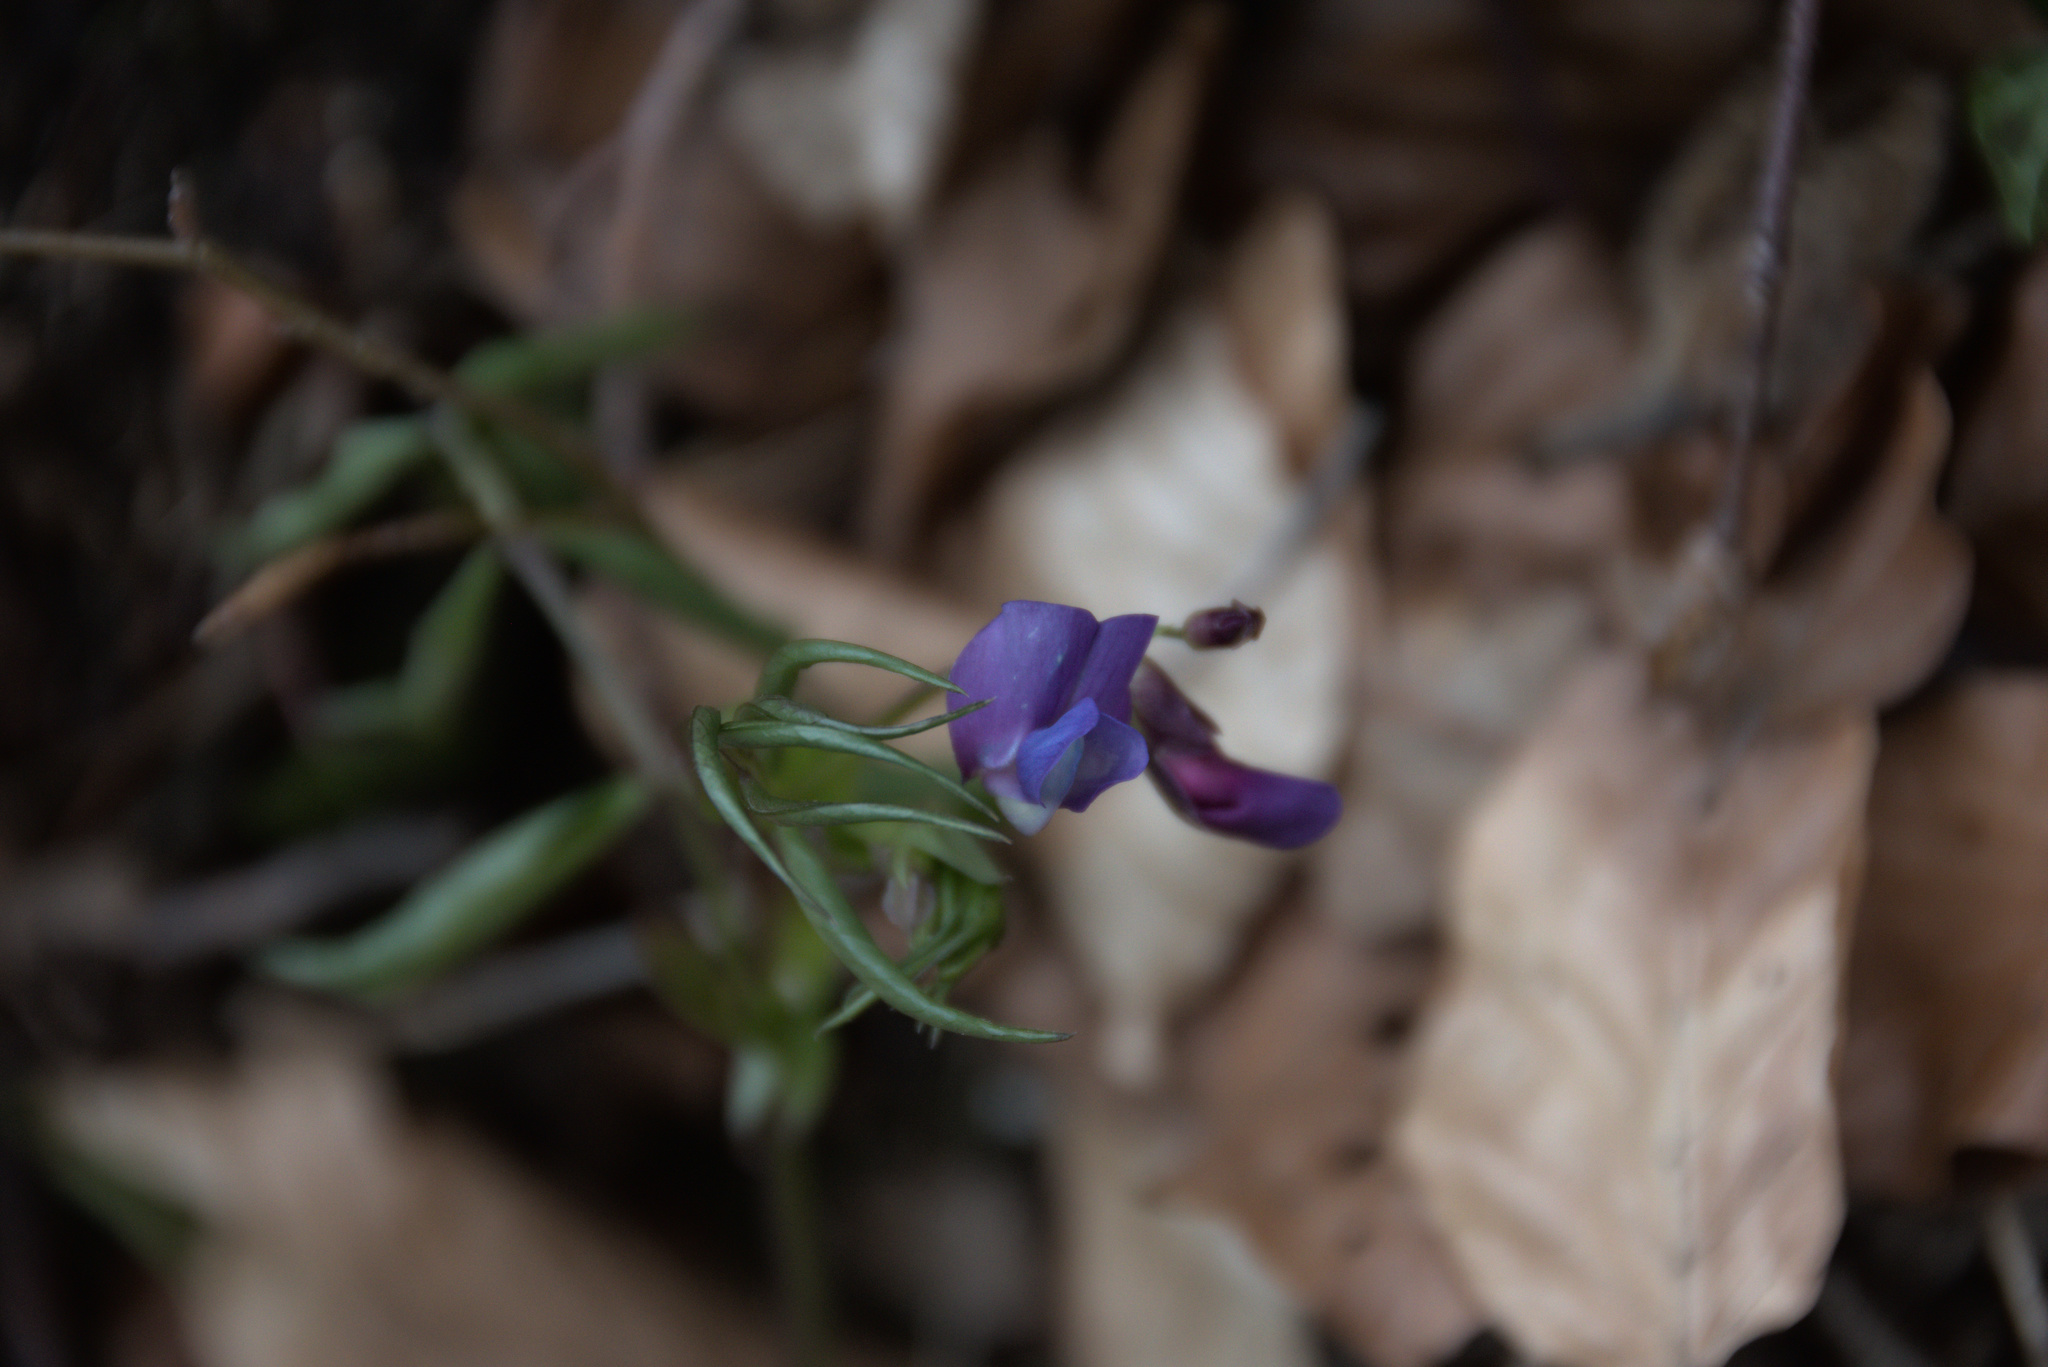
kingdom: Plantae
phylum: Tracheophyta
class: Magnoliopsida
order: Fabales
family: Fabaceae
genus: Lathyrus
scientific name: Lathyrus vernus
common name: Spring pea
